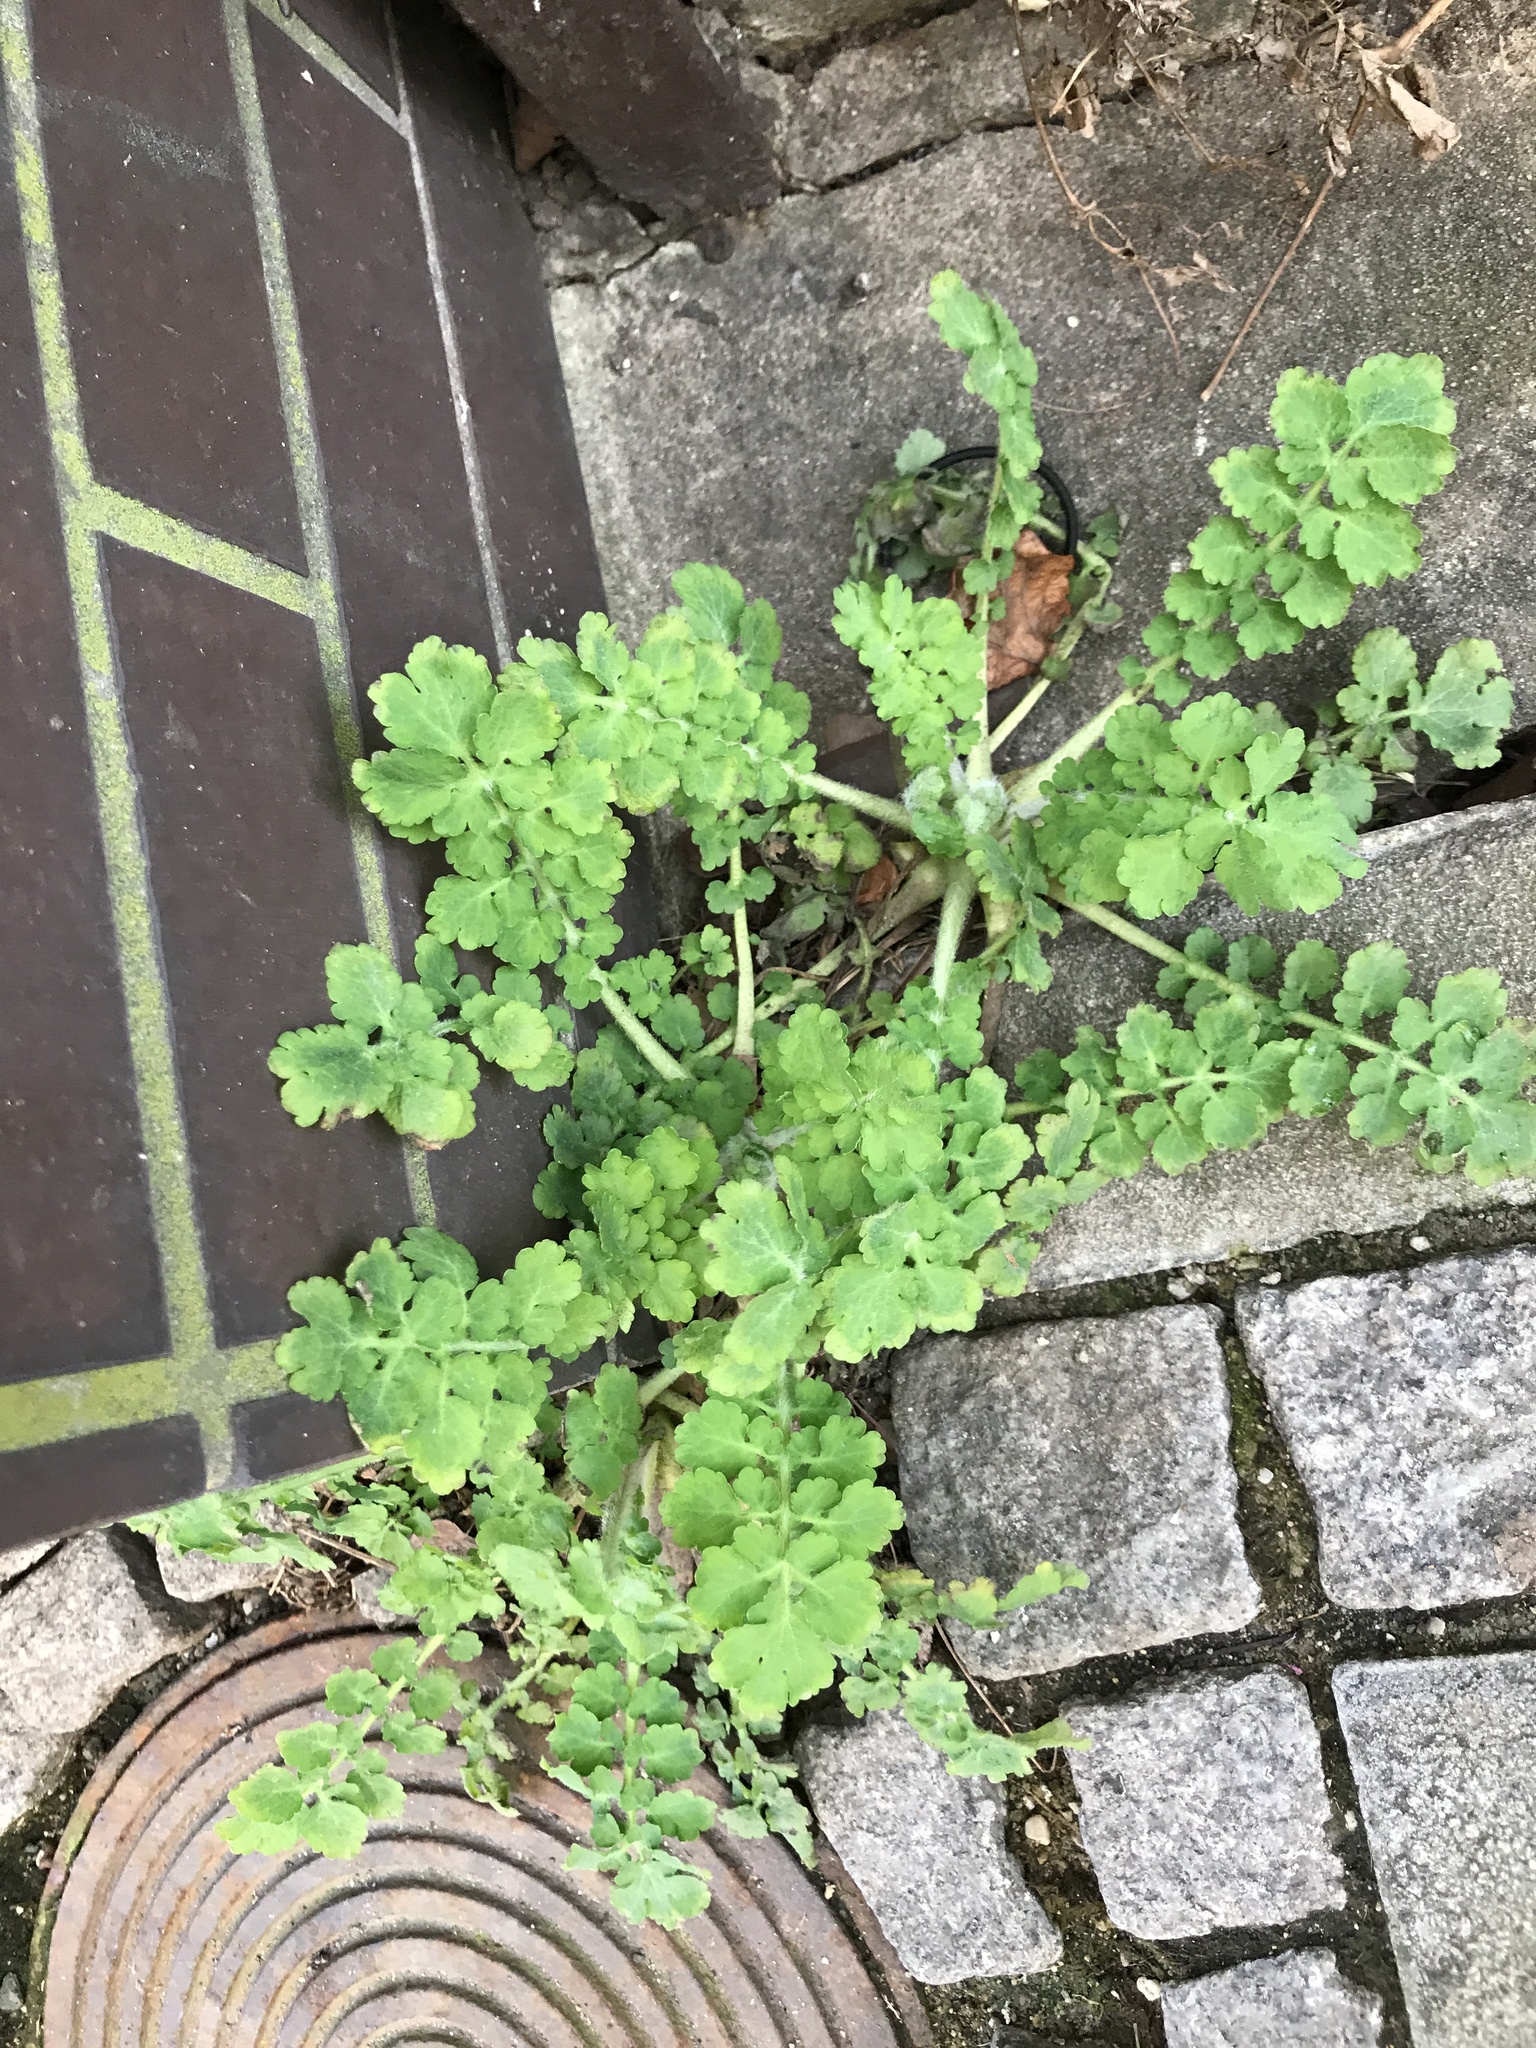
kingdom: Plantae
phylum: Tracheophyta
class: Magnoliopsida
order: Ranunculales
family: Papaveraceae
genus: Chelidonium
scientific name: Chelidonium majus
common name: Greater celandine
